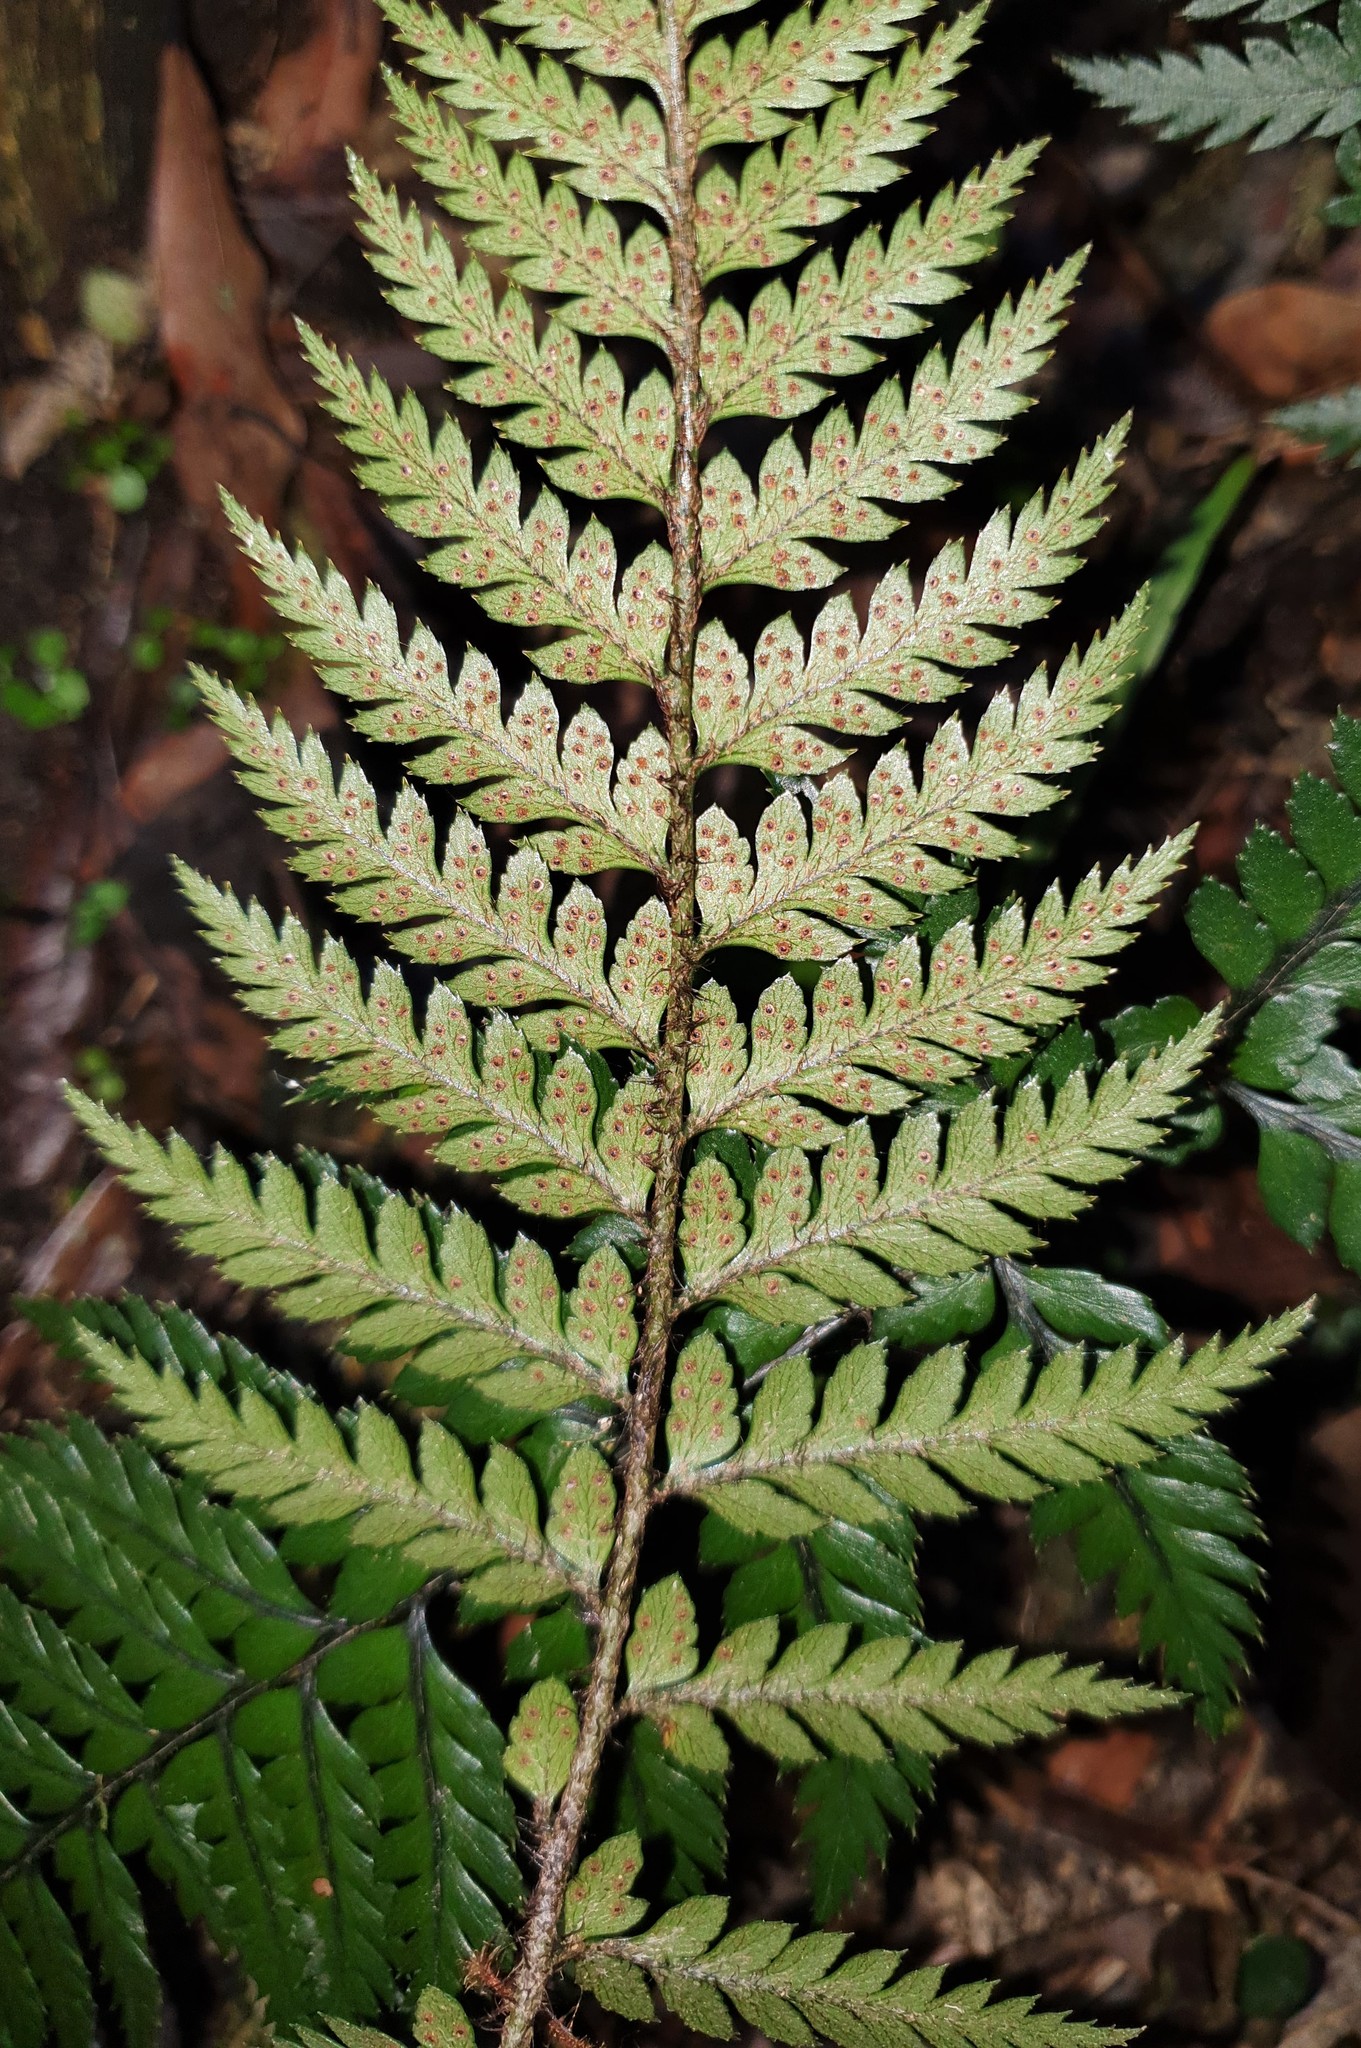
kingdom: Plantae
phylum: Tracheophyta
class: Polypodiopsida
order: Polypodiales
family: Dryopteridaceae
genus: Polystichum
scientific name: Polystichum neozelandicum
